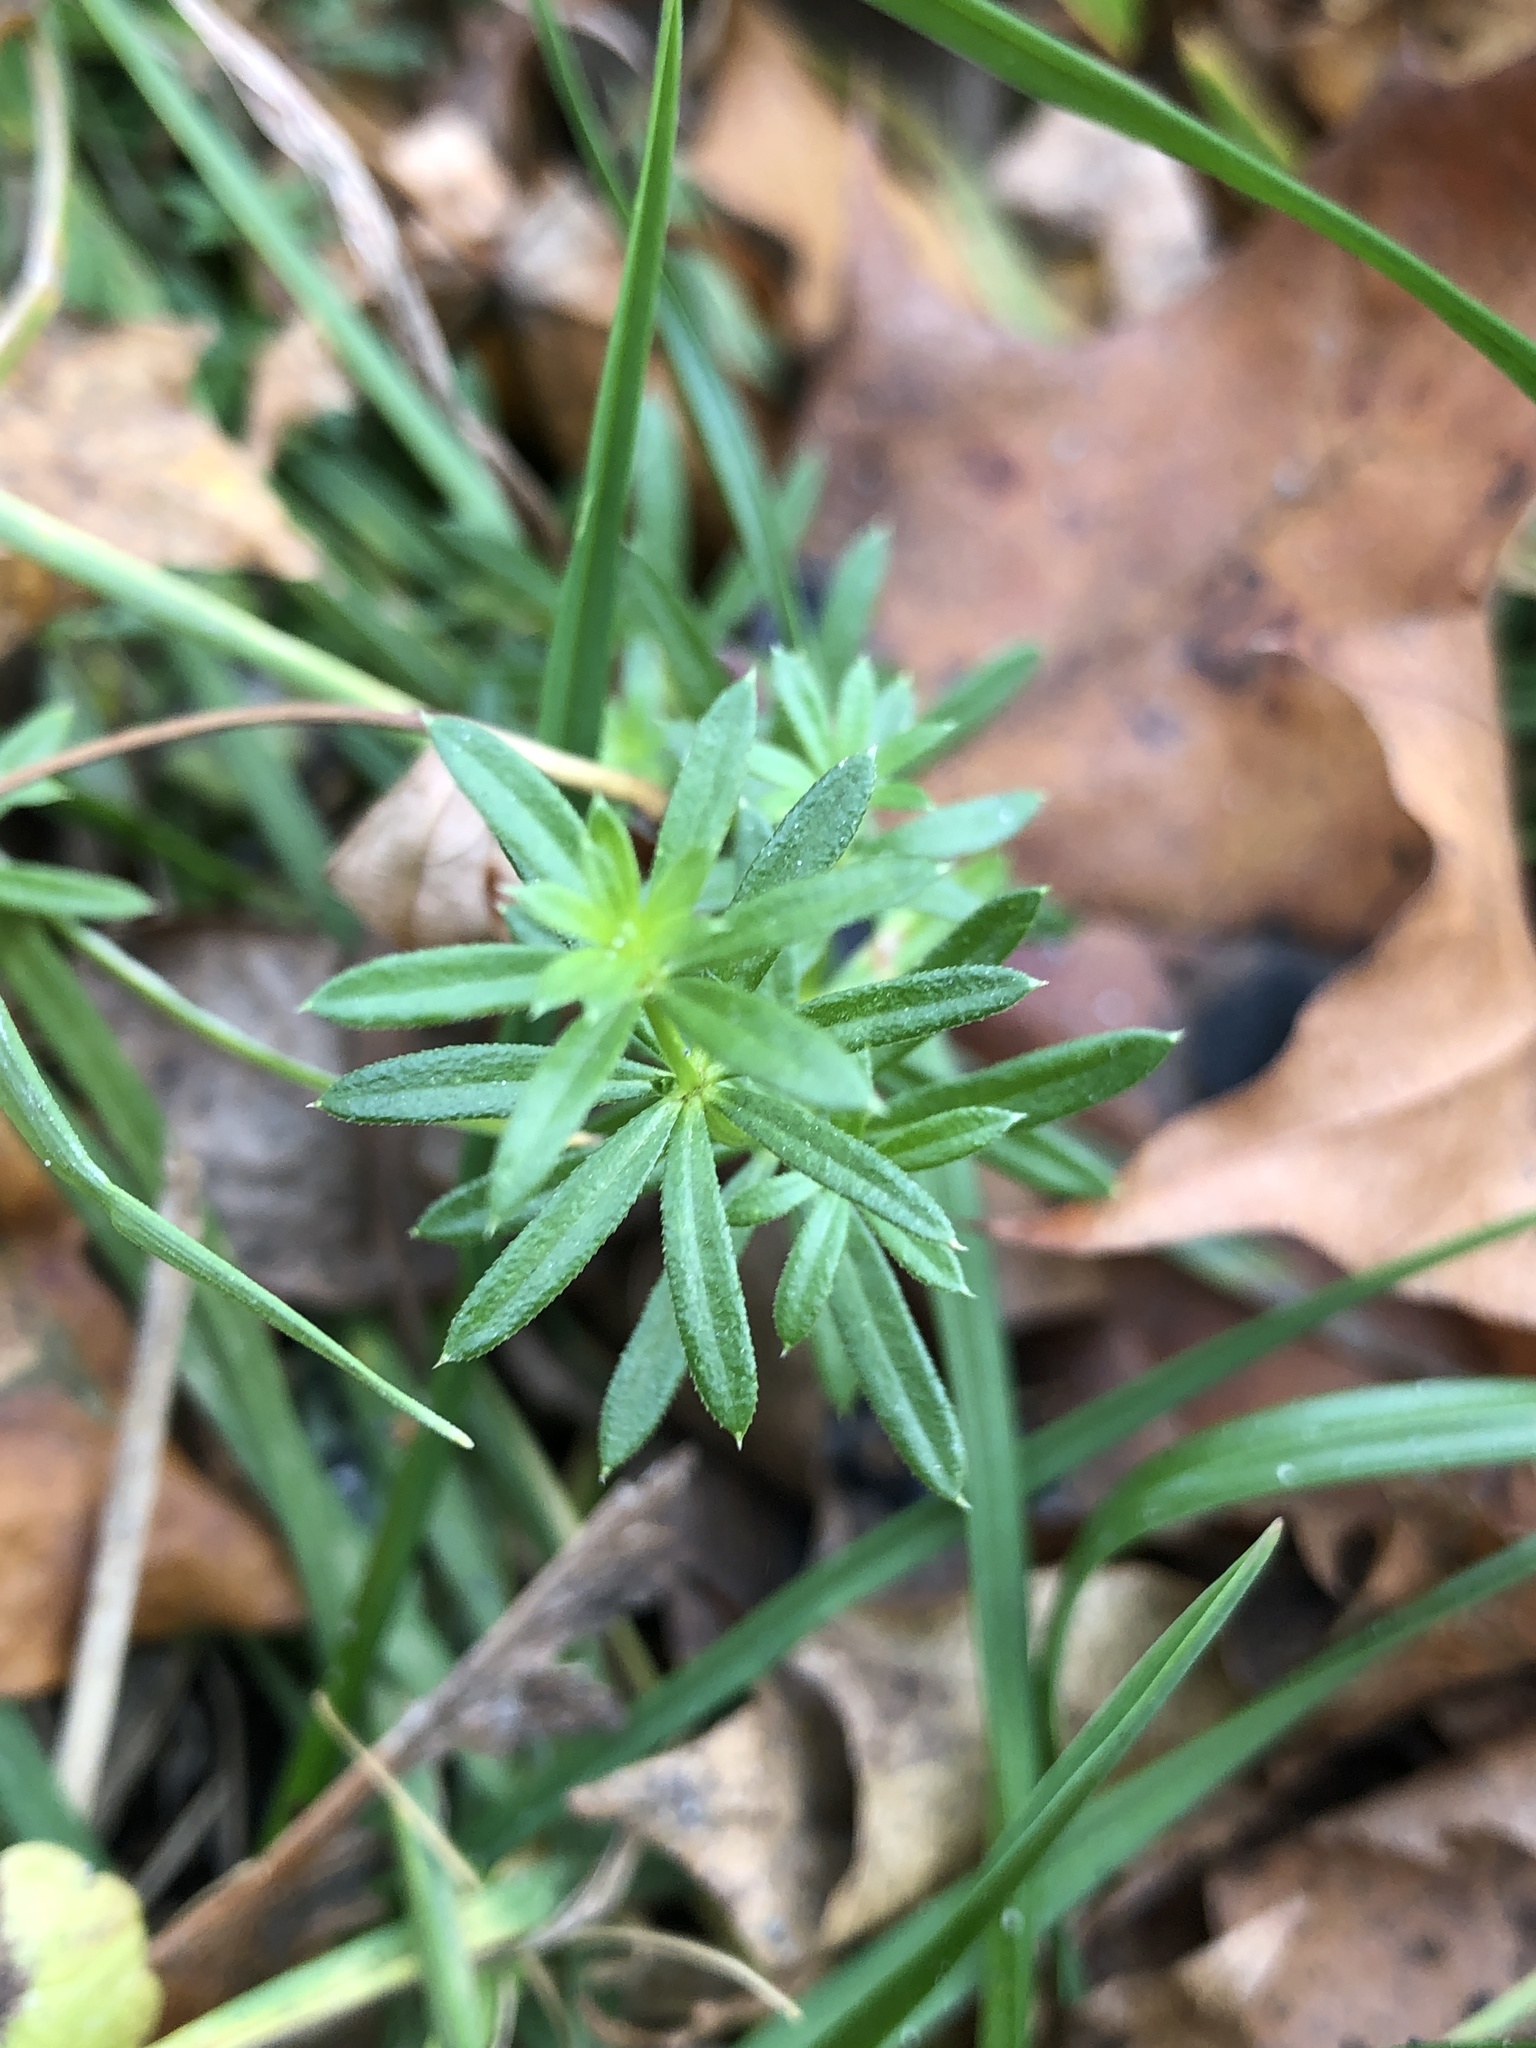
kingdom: Plantae
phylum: Tracheophyta
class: Magnoliopsida
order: Gentianales
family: Rubiaceae
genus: Galium
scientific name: Galium mollugo
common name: Hedge bedstraw
